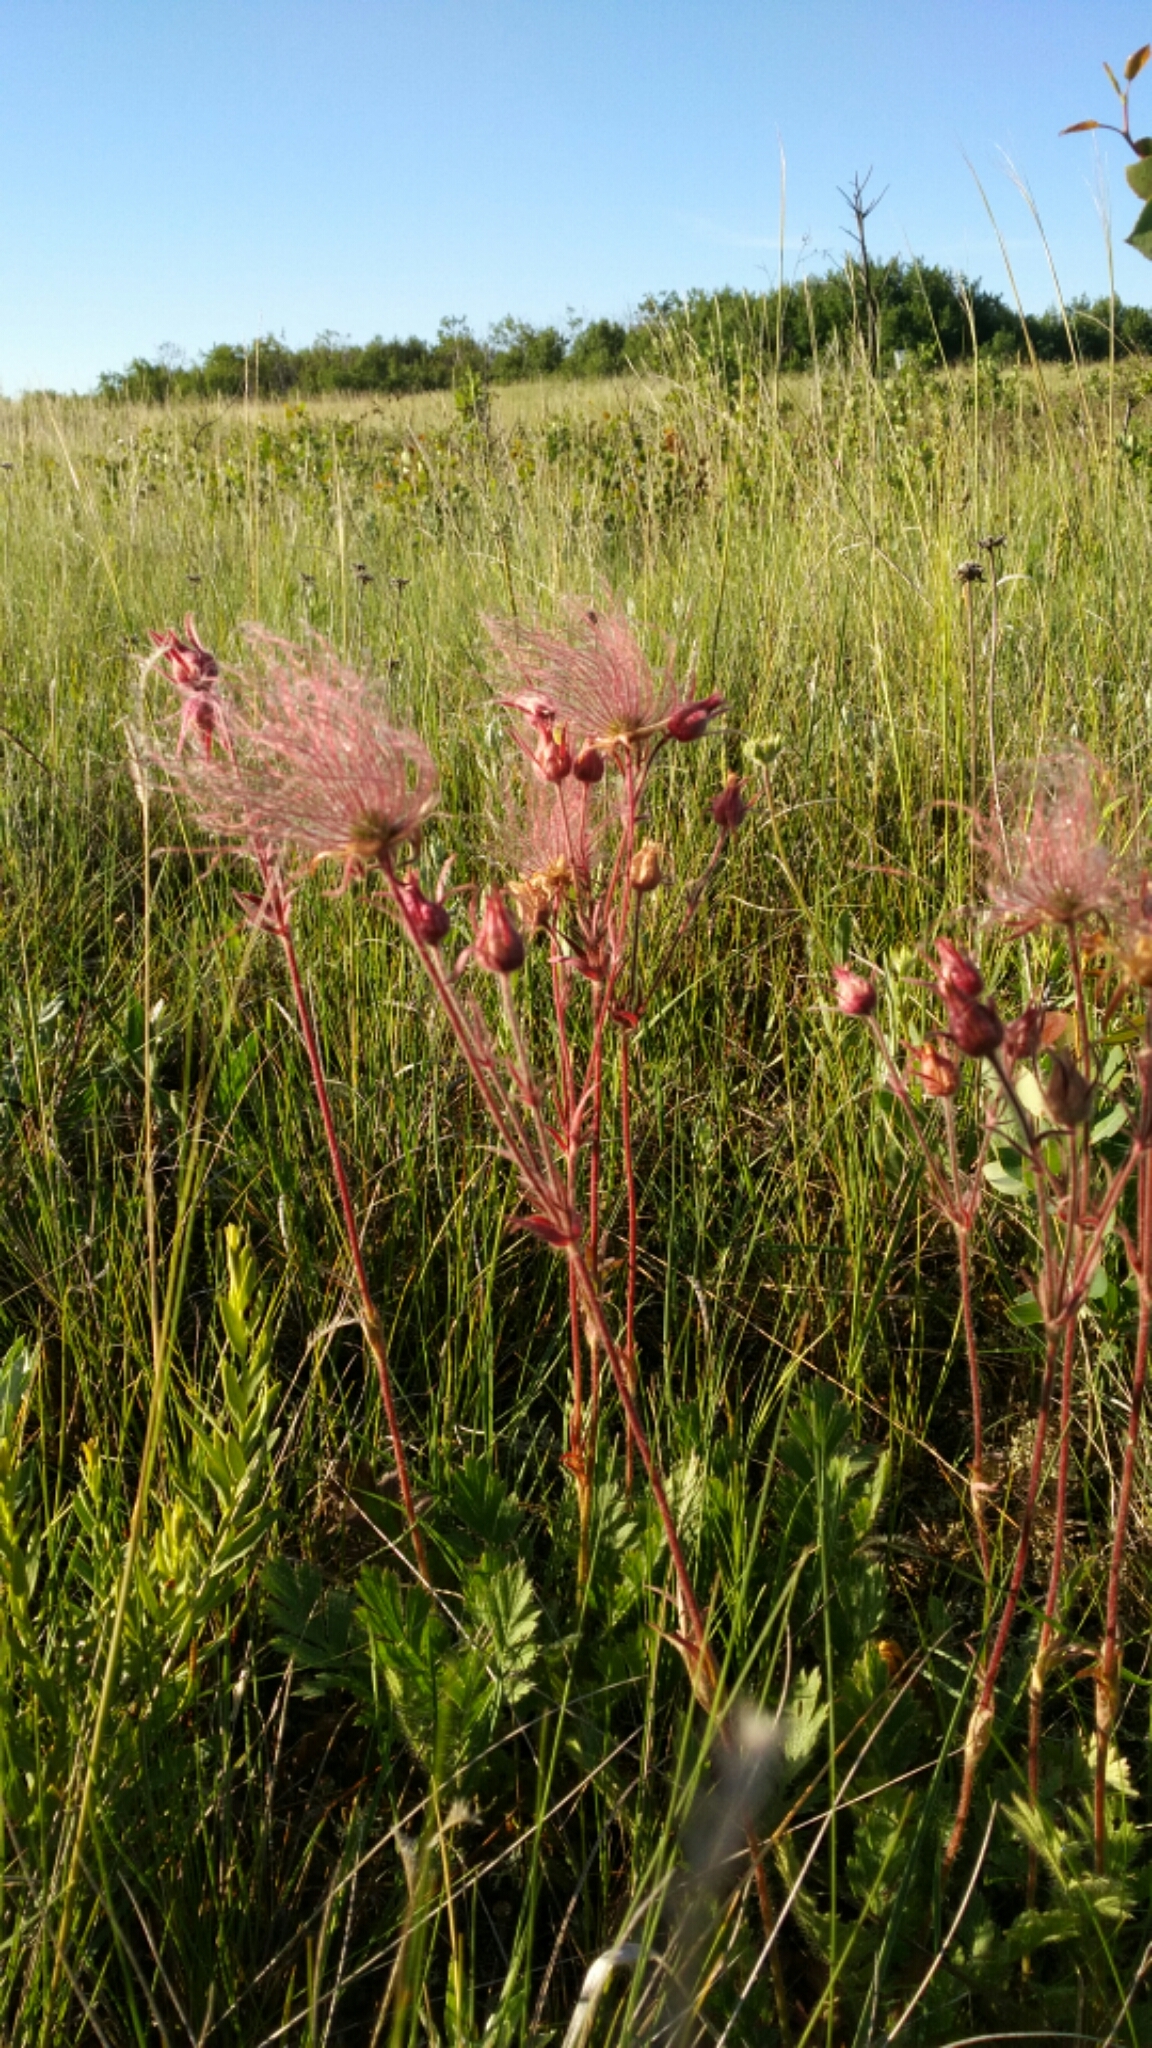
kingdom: Plantae
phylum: Tracheophyta
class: Magnoliopsida
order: Rosales
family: Rosaceae
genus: Geum
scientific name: Geum triflorum
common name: Old man's whiskers
